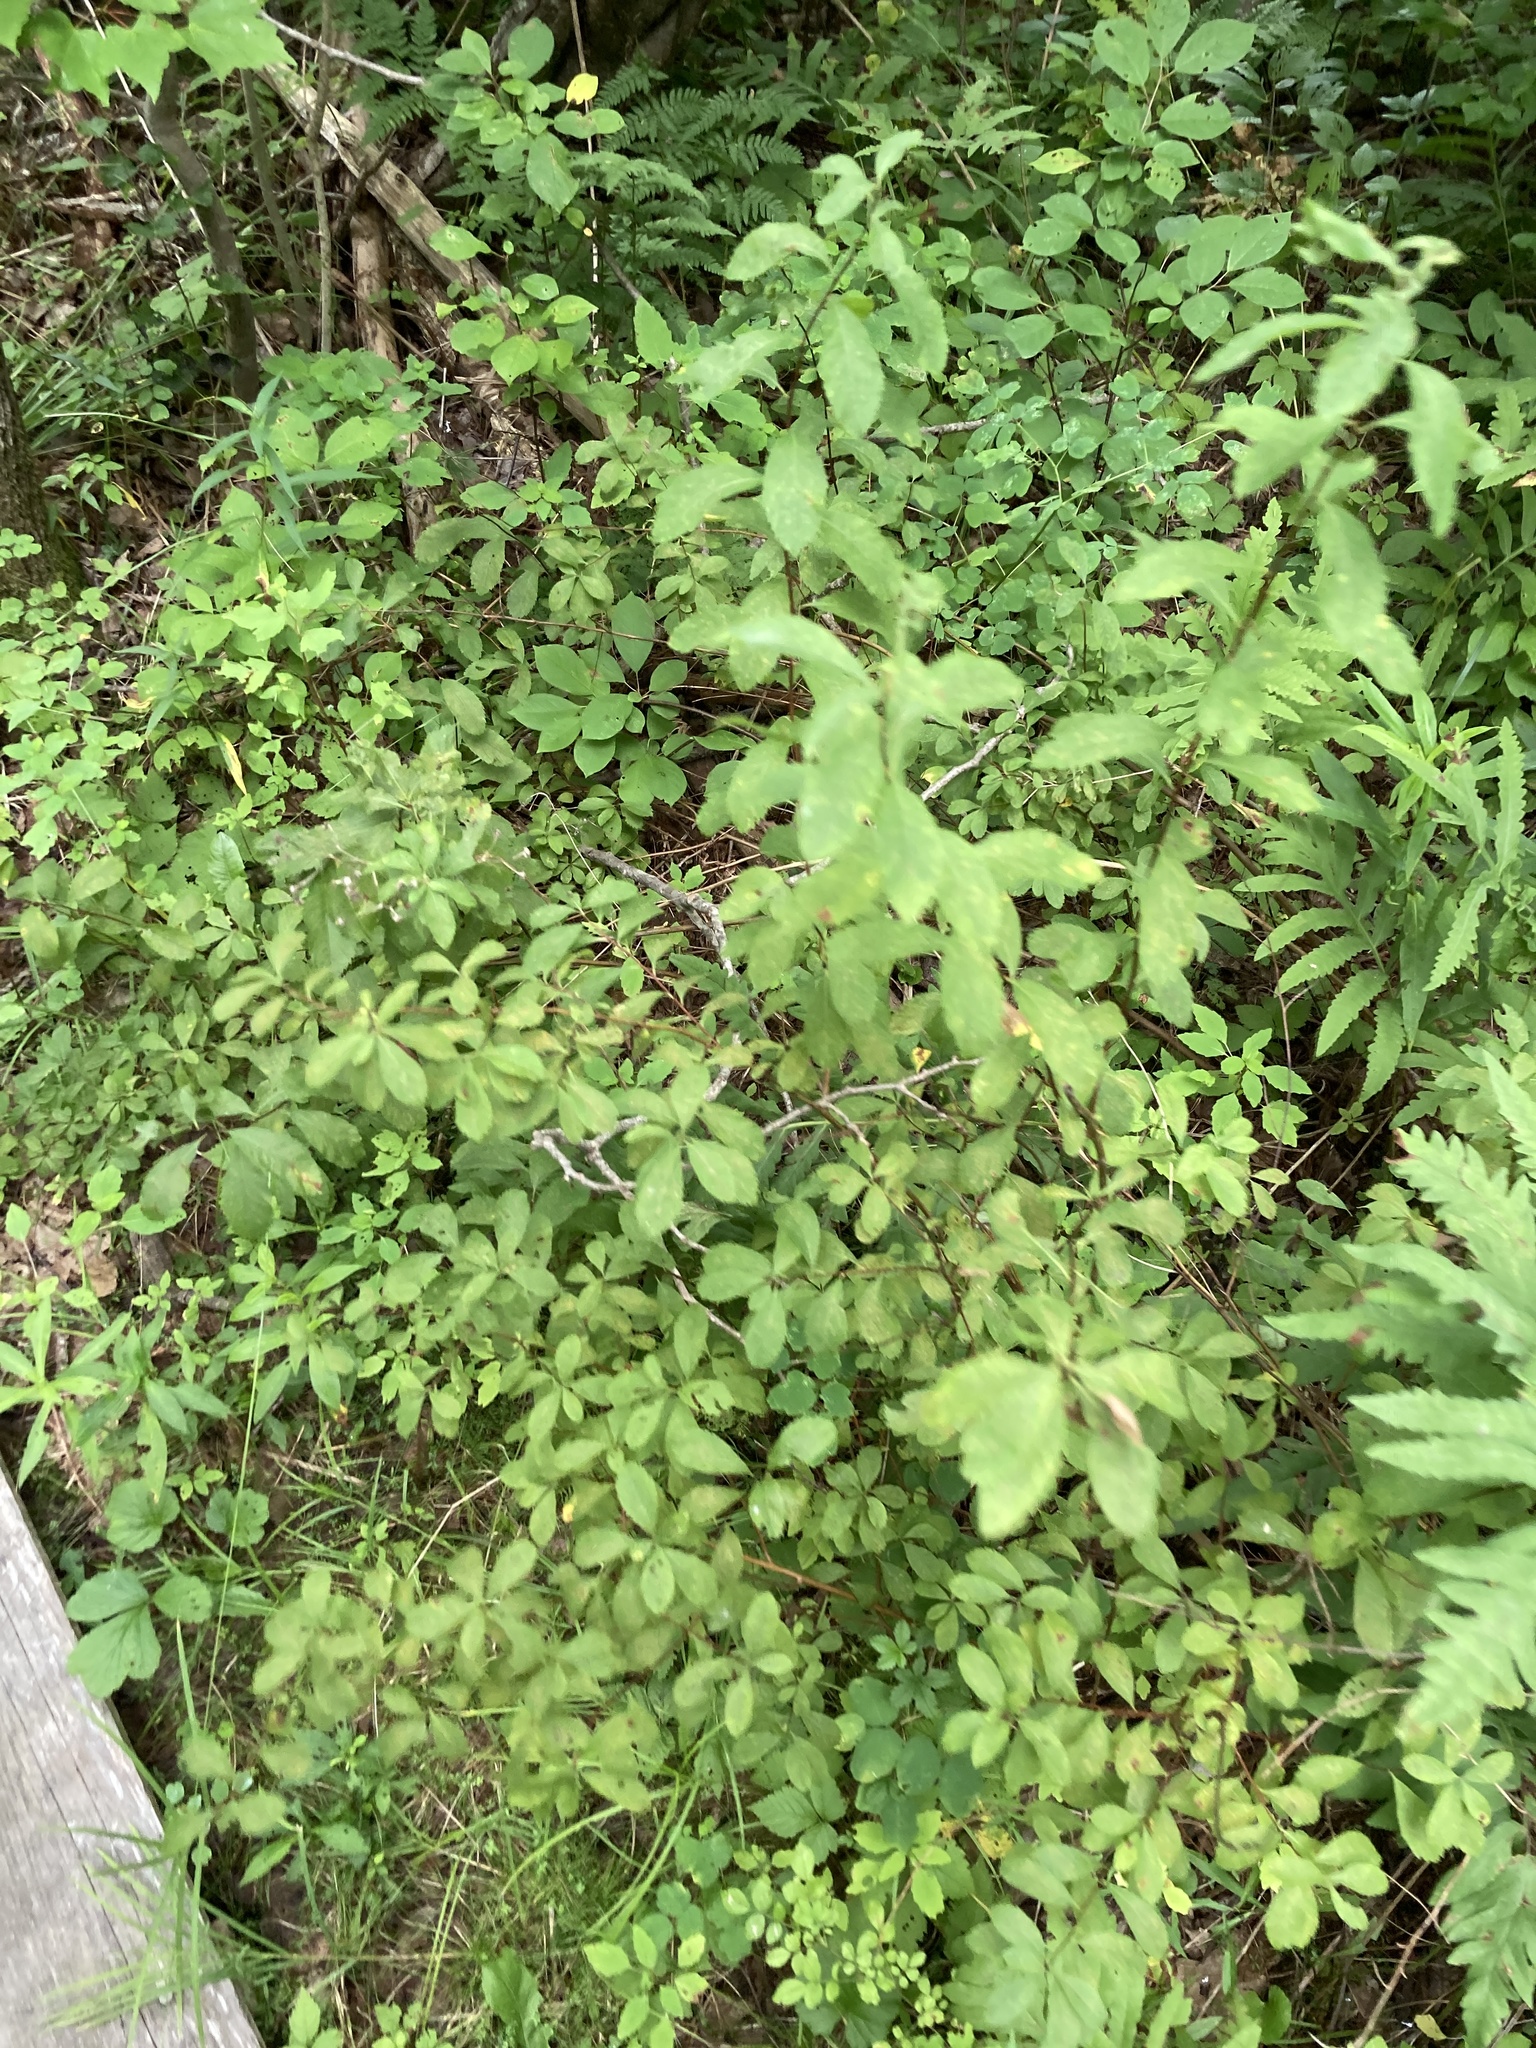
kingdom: Plantae
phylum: Tracheophyta
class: Magnoliopsida
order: Rosales
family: Rosaceae
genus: Spiraea
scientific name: Spiraea alba
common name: Pale bridewort
